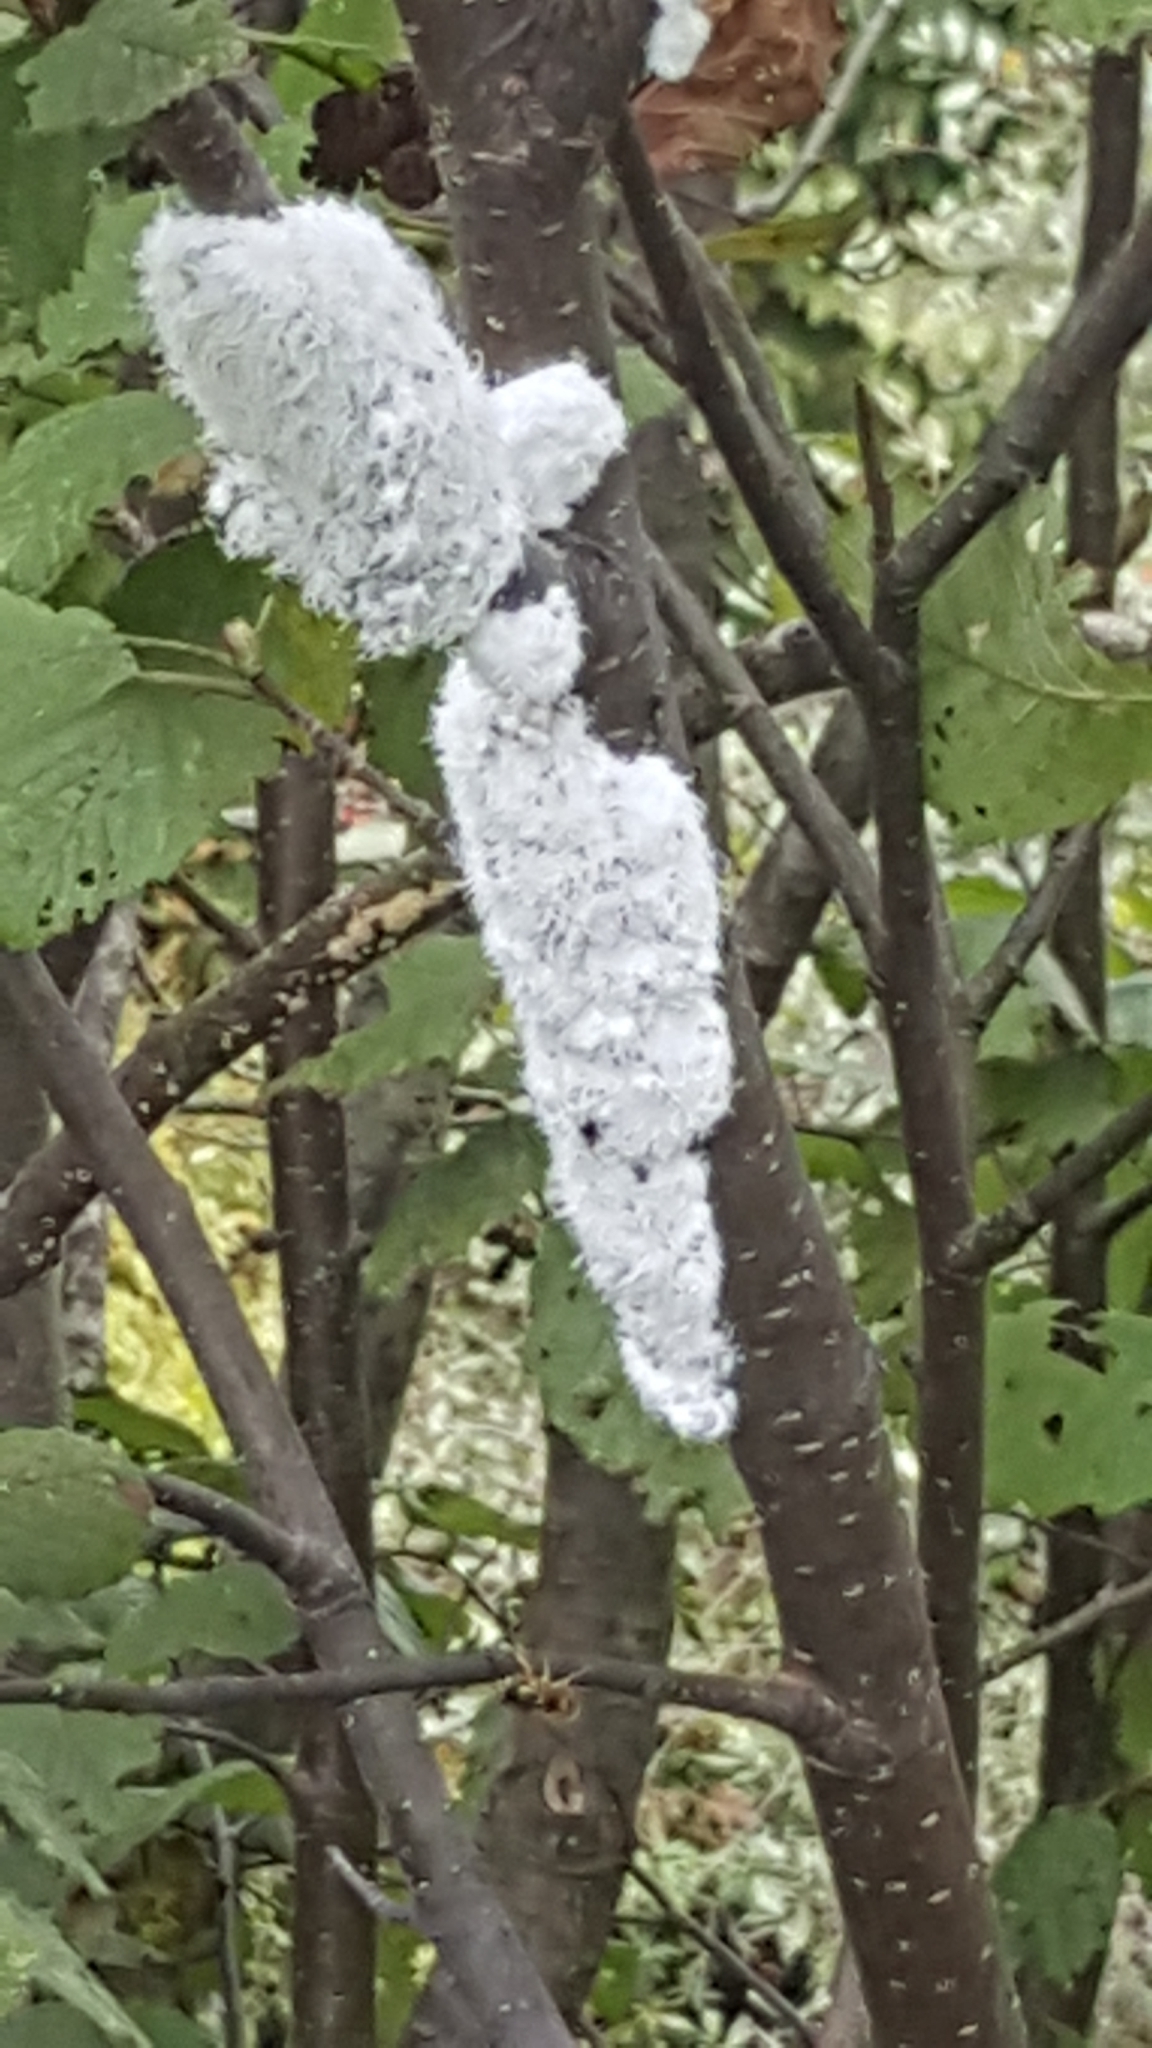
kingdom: Plantae
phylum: Tracheophyta
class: Magnoliopsida
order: Fagales
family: Betulaceae
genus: Alnus
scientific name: Alnus incana
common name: Grey alder
